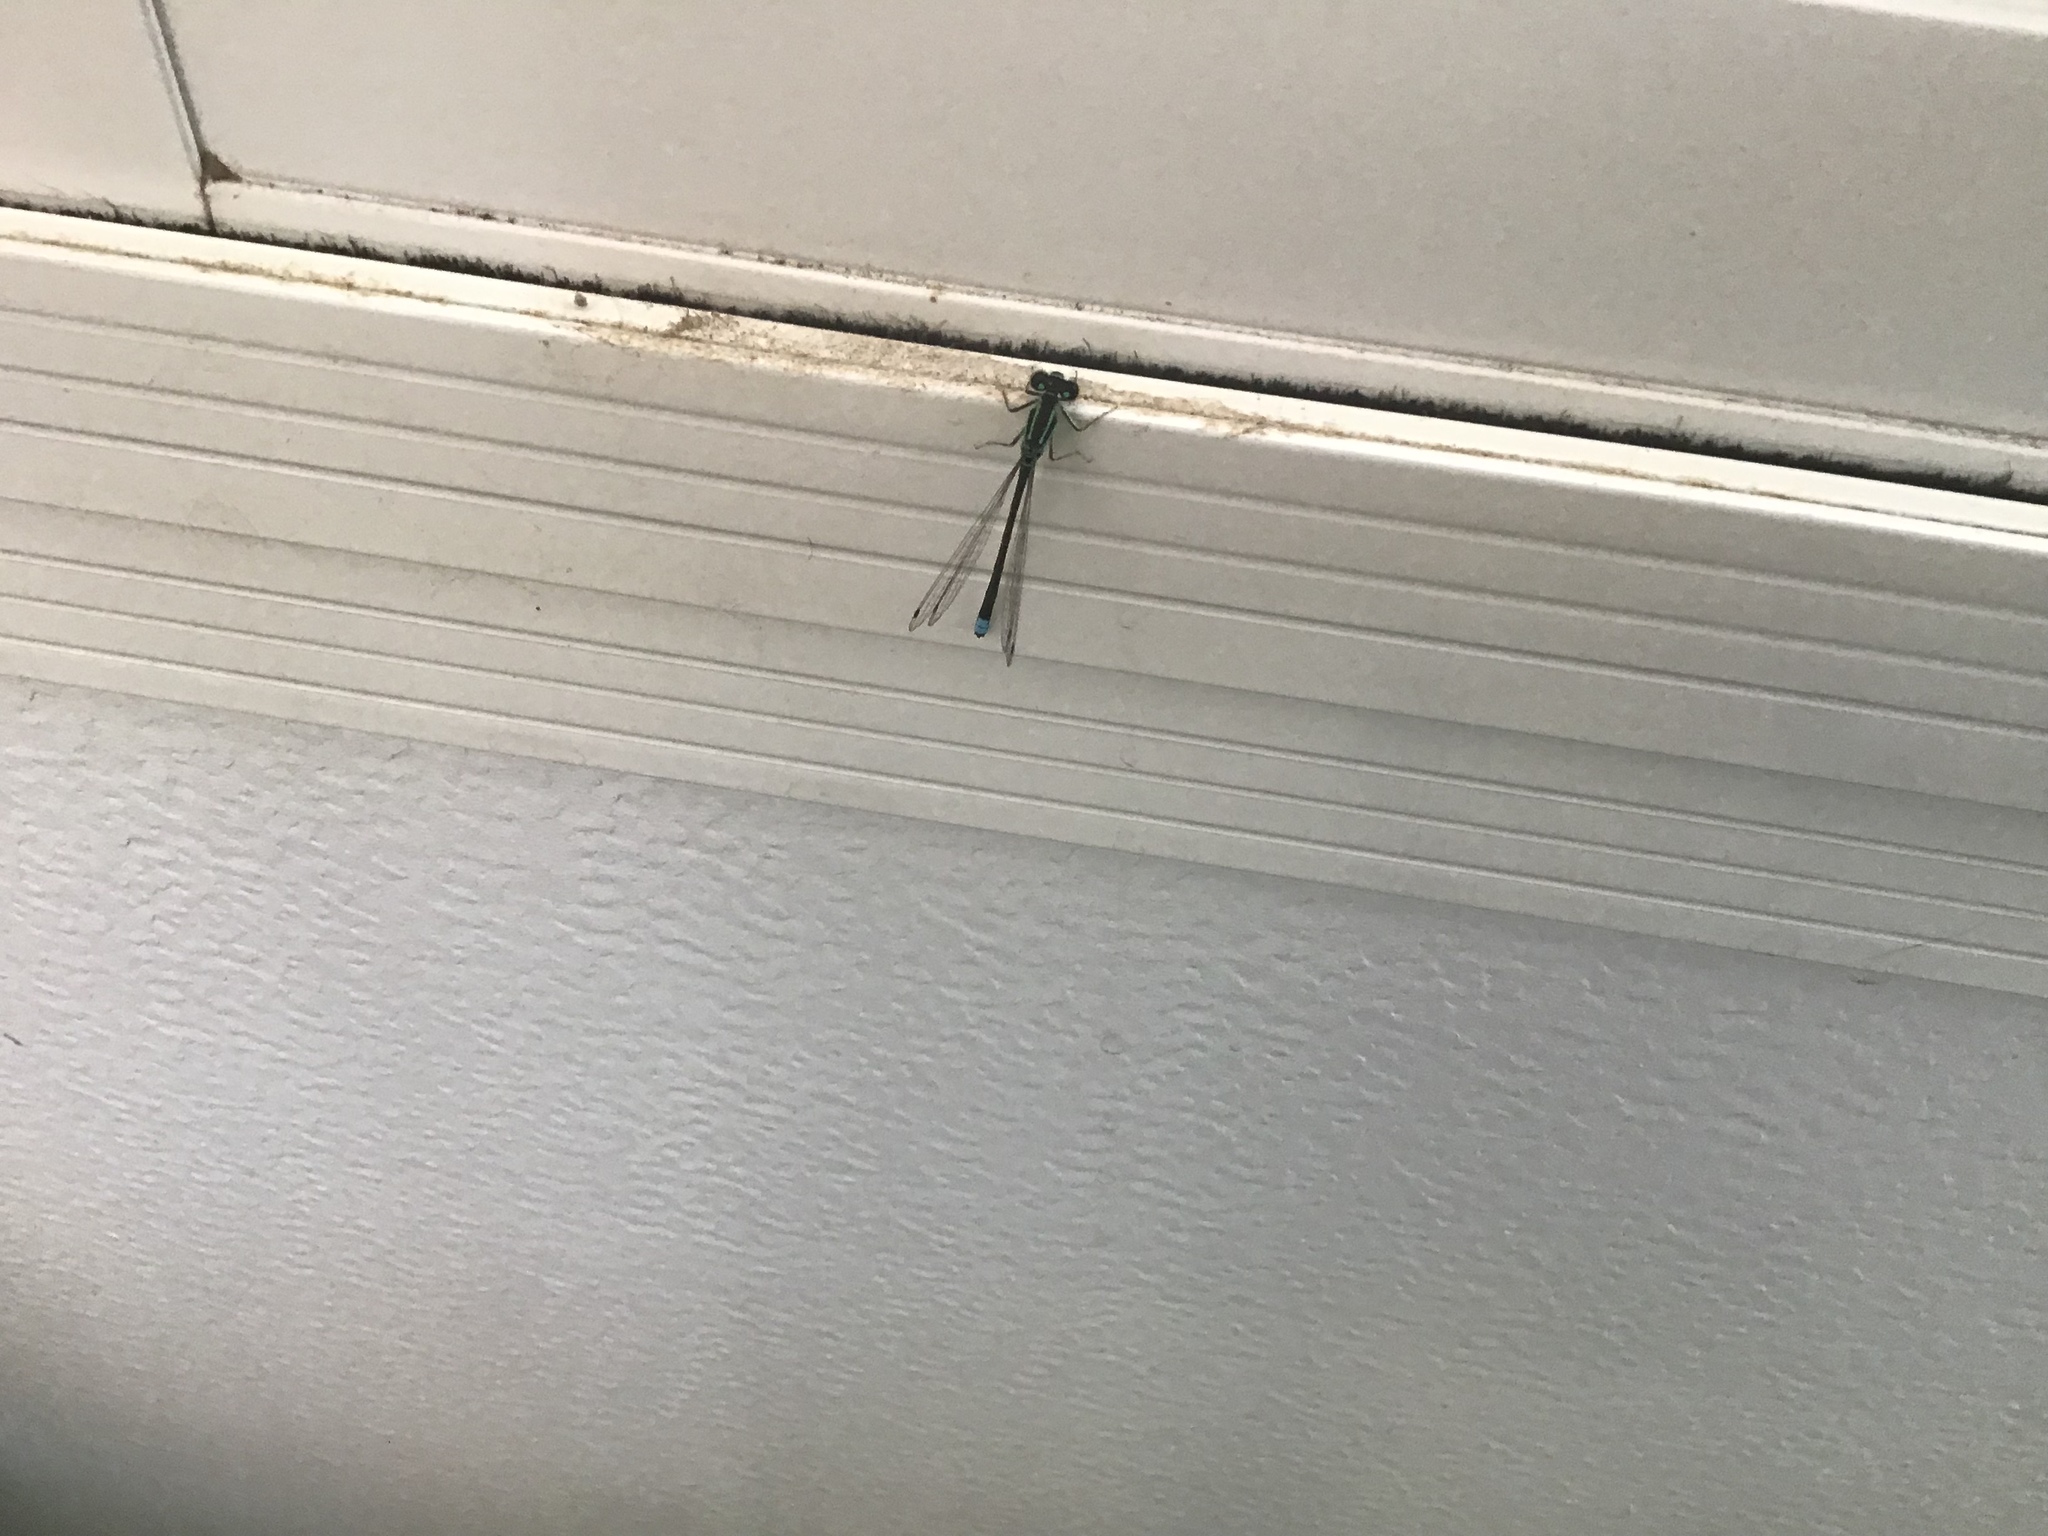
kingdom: Animalia
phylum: Arthropoda
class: Insecta
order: Odonata
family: Coenagrionidae
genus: Ischnura
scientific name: Ischnura verticalis
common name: Eastern forktail
